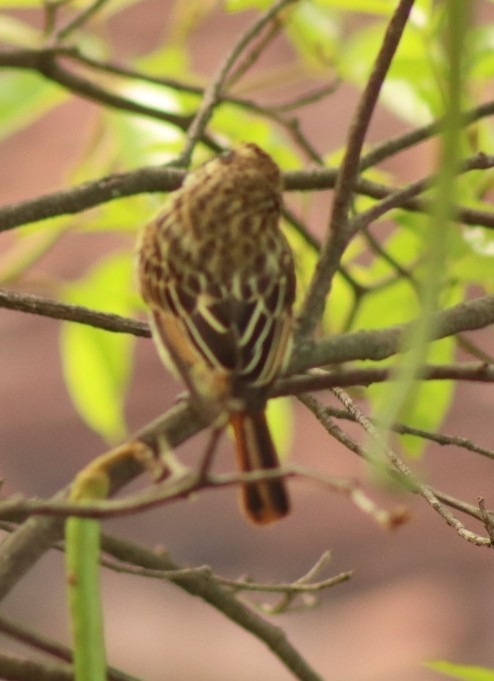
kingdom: Animalia
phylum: Chordata
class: Aves
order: Passeriformes
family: Tyrannidae
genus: Myiodynastes
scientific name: Myiodynastes maculatus
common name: Streaked flycatcher
